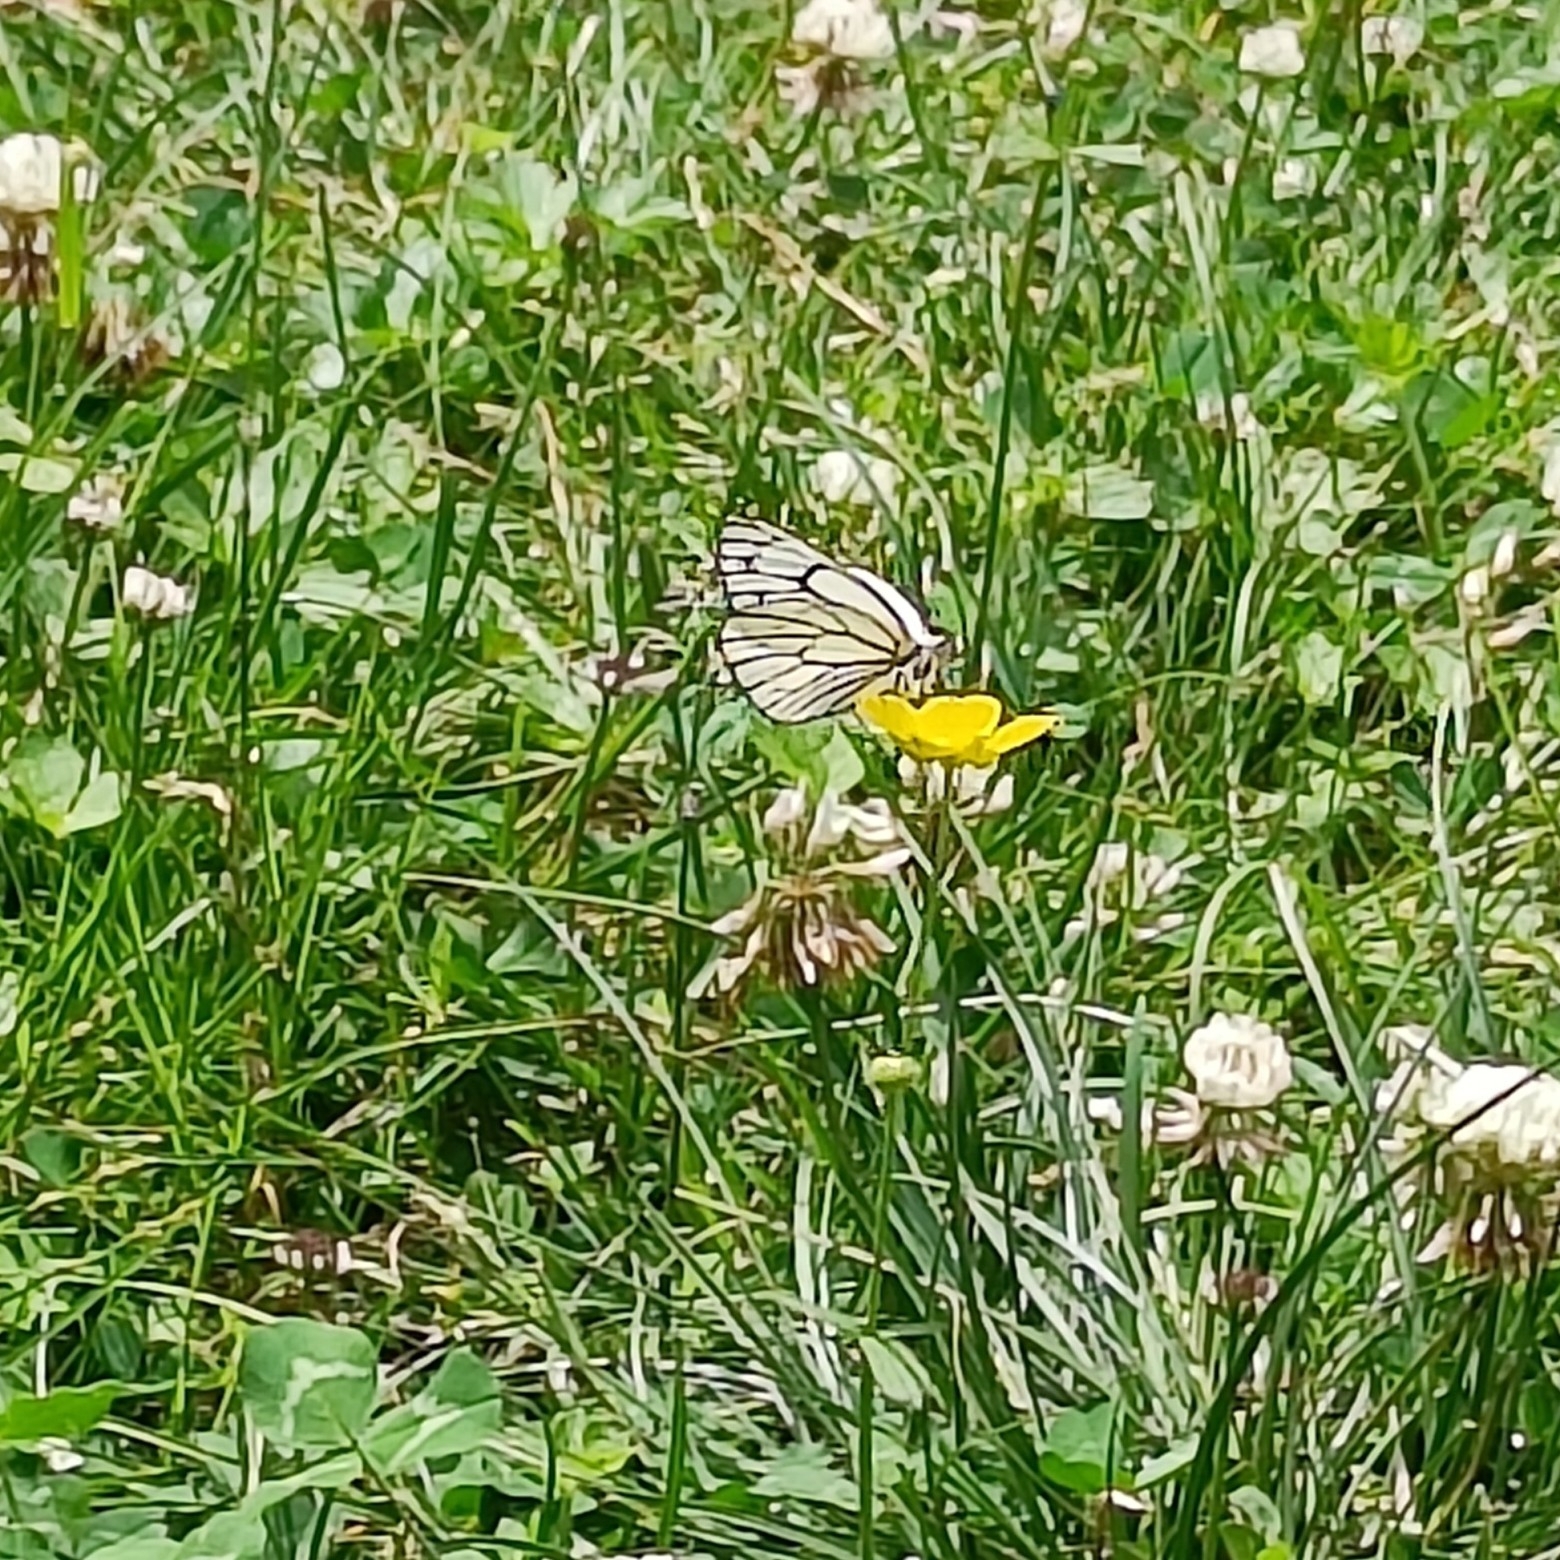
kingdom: Animalia
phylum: Arthropoda
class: Insecta
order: Lepidoptera
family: Pieridae
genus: Aporia
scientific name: Aporia leucodice
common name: Himalayan blackvein
